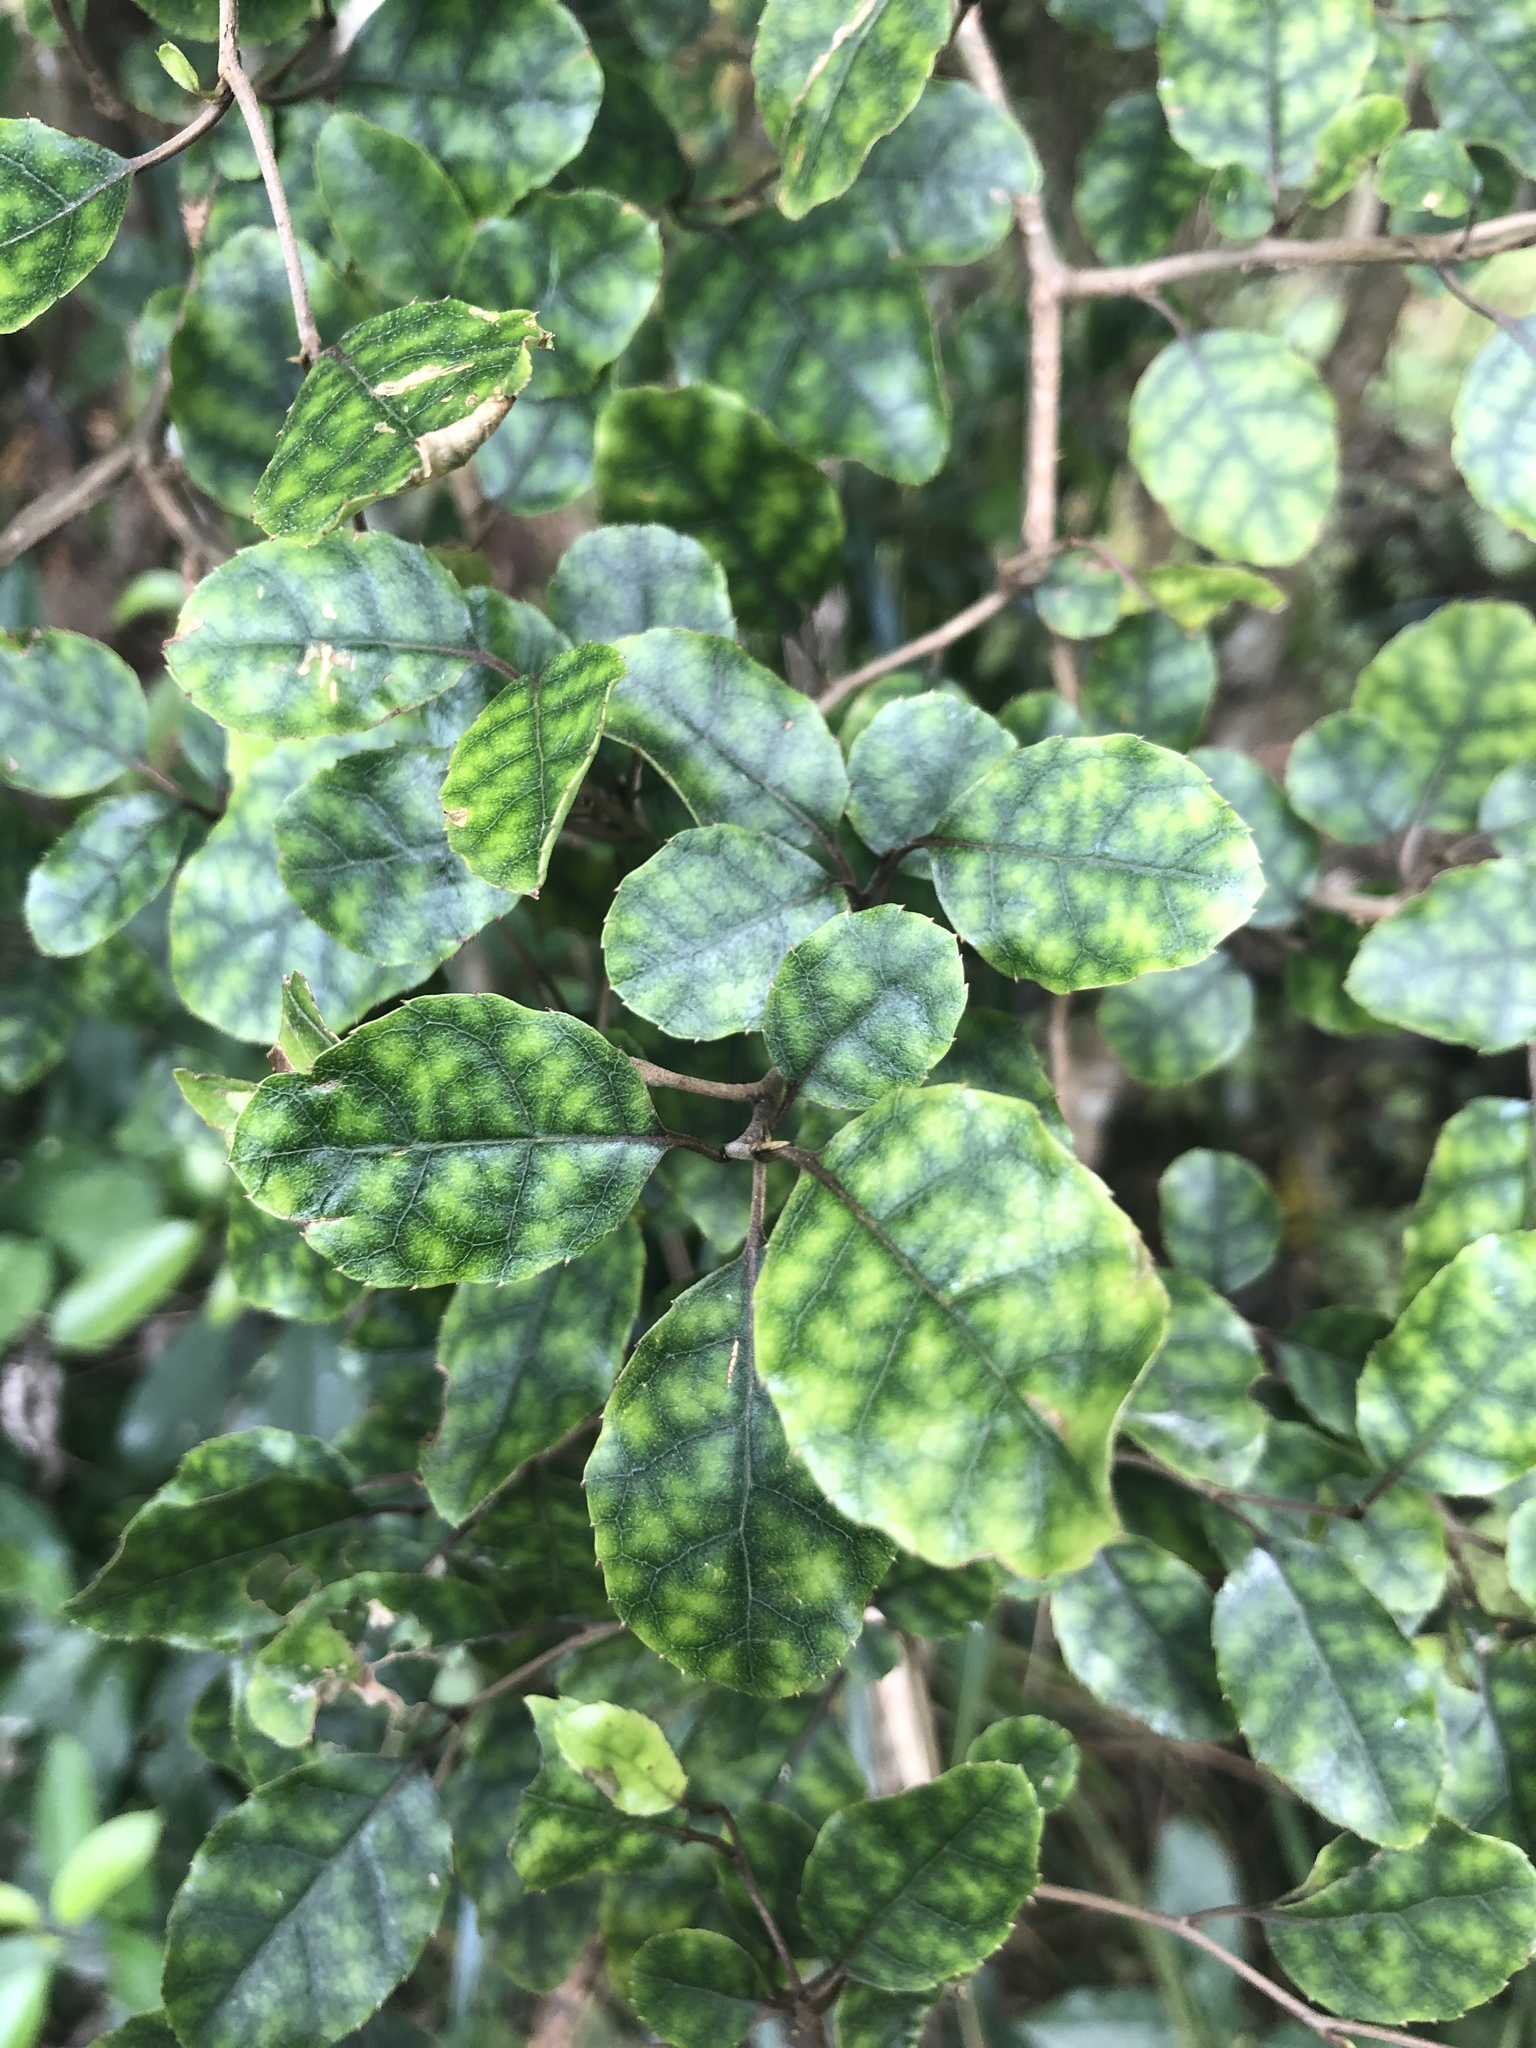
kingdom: Plantae
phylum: Tracheophyta
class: Magnoliopsida
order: Asterales
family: Rousseaceae
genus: Carpodetus
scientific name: Carpodetus serratus
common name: White mapau
